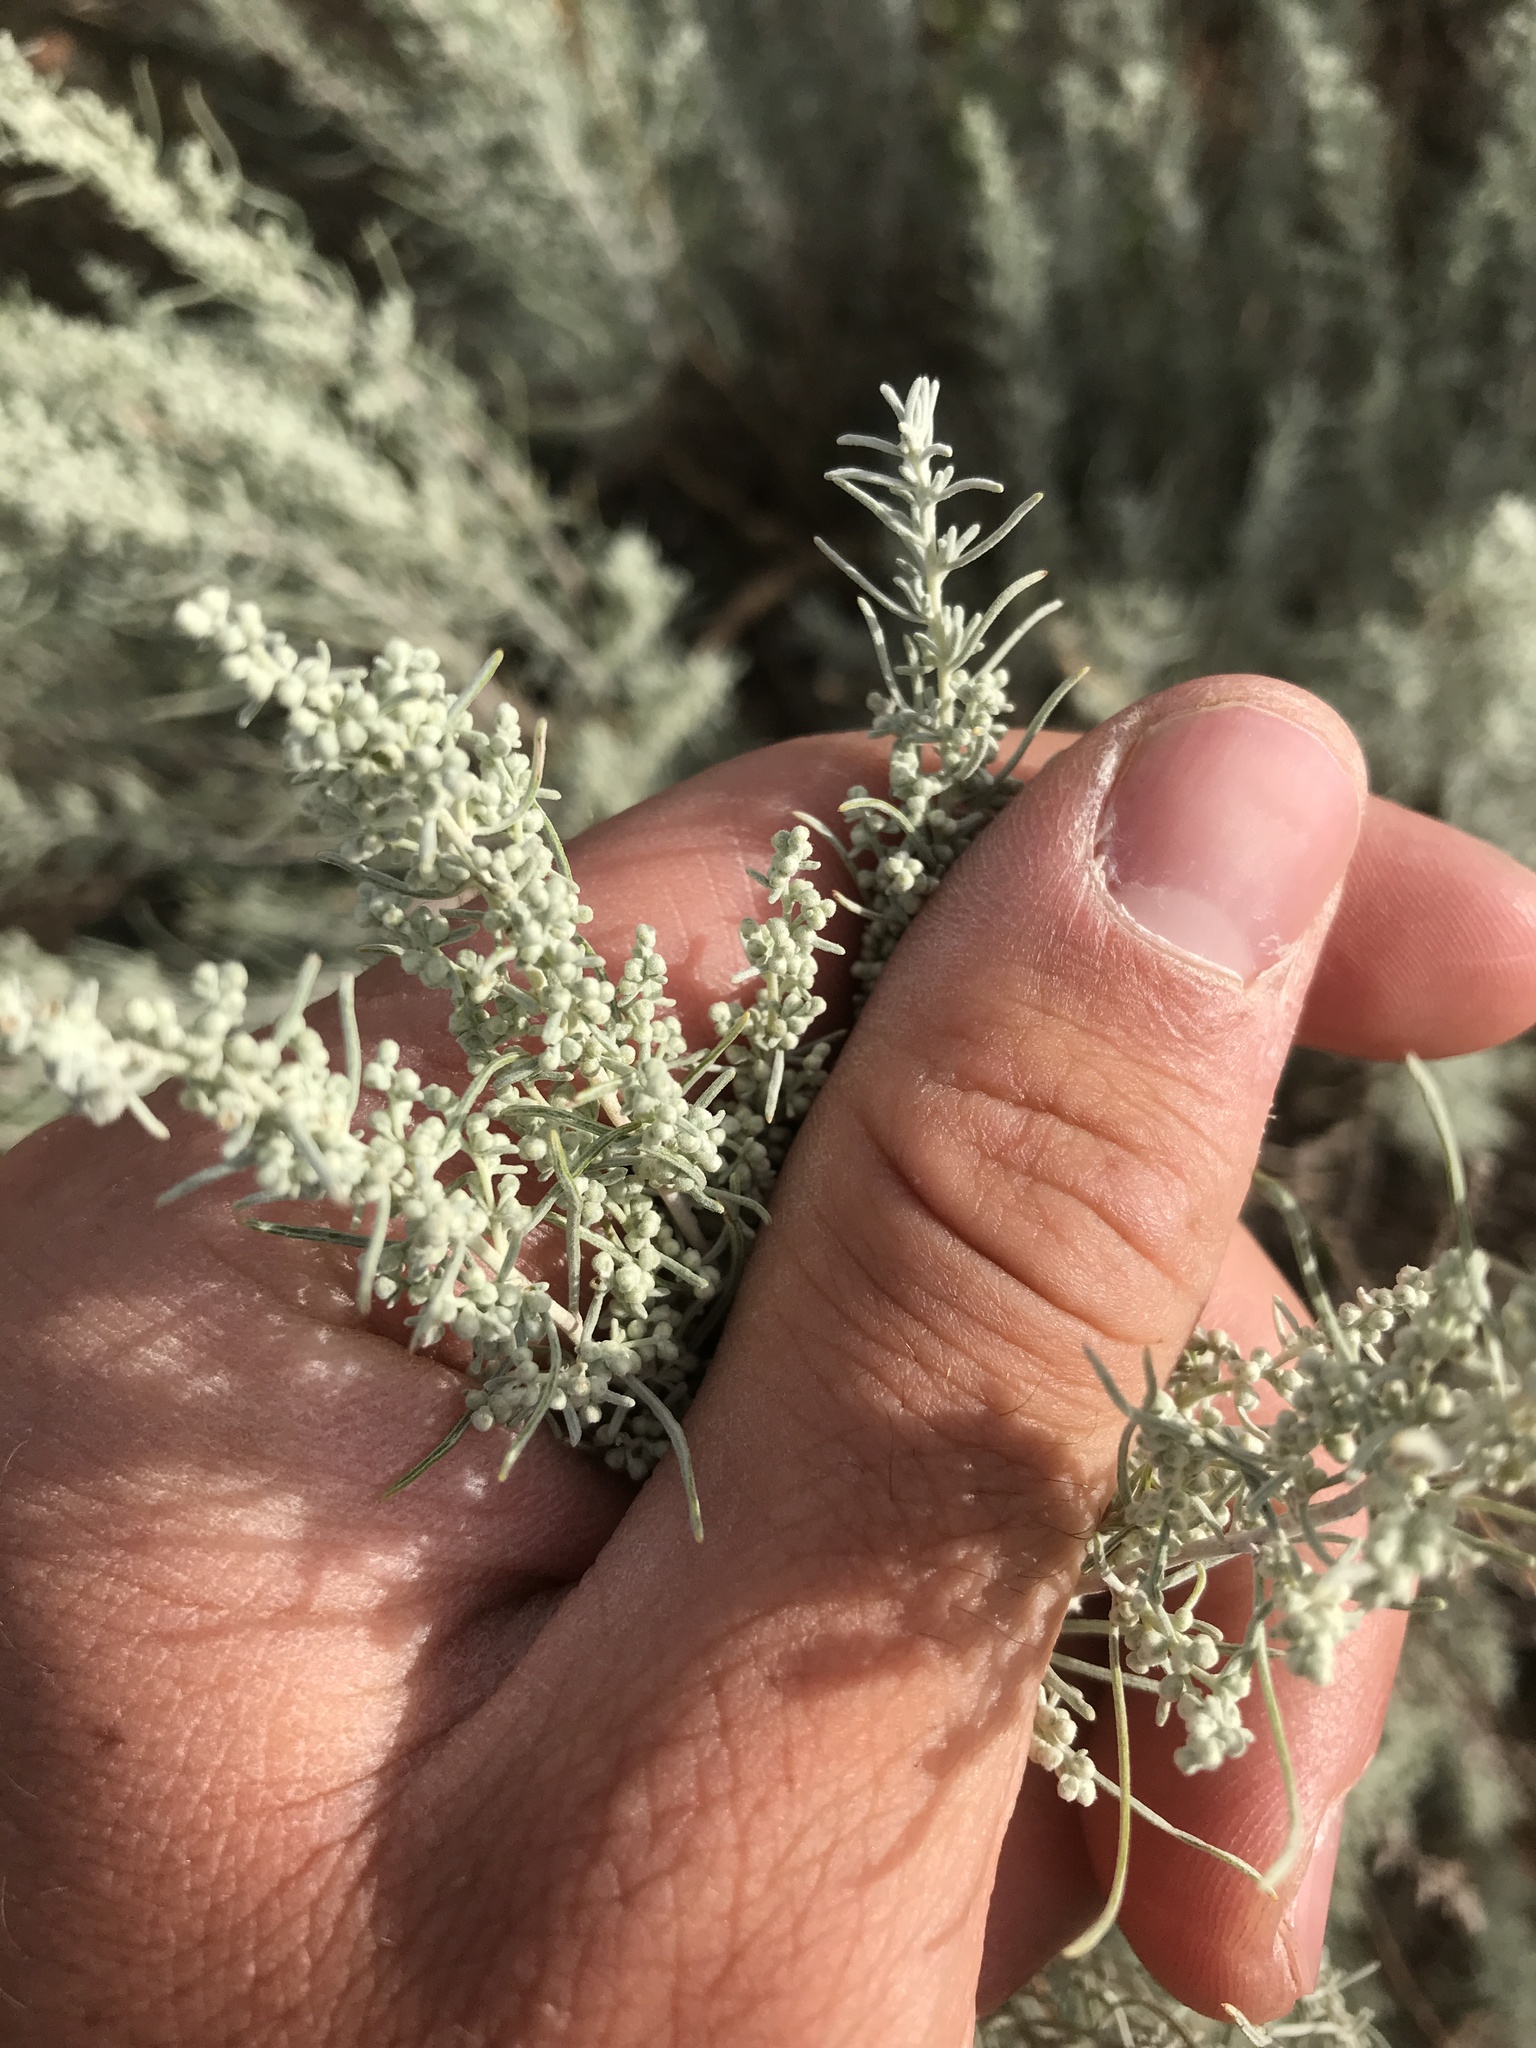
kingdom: Plantae
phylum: Tracheophyta
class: Magnoliopsida
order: Asterales
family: Asteraceae
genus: Artemisia
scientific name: Artemisia filifolia
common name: Sand-sage
